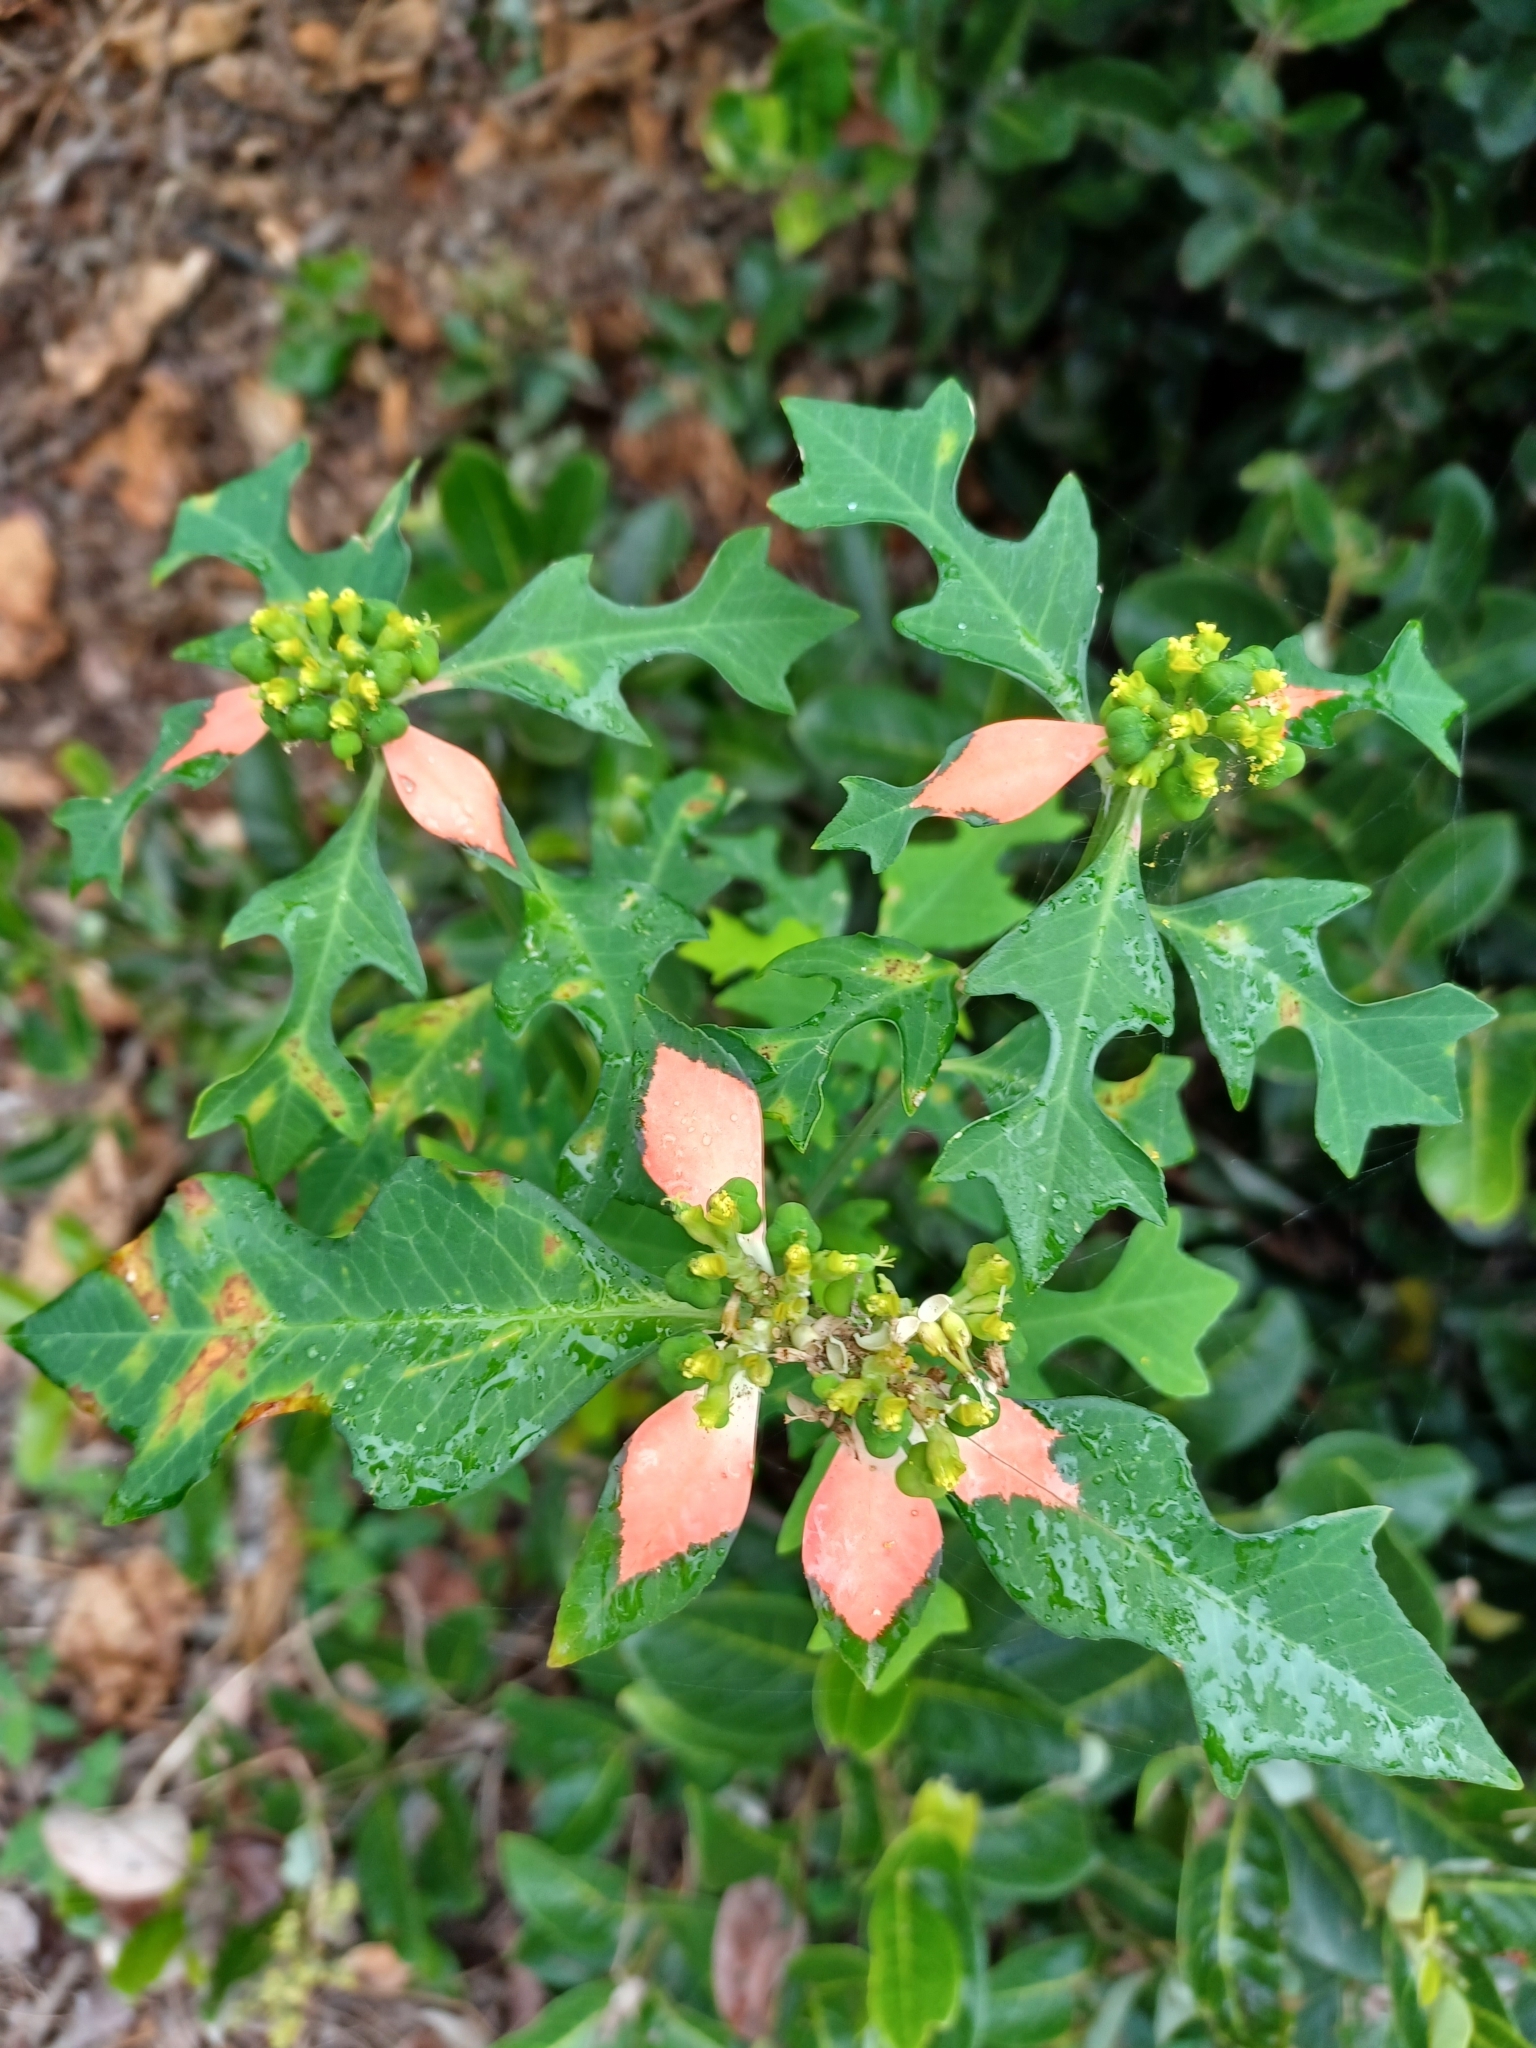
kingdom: Plantae
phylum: Tracheophyta
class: Magnoliopsida
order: Malpighiales
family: Euphorbiaceae
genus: Euphorbia
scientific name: Euphorbia heterophylla
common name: Mexican fireplant
